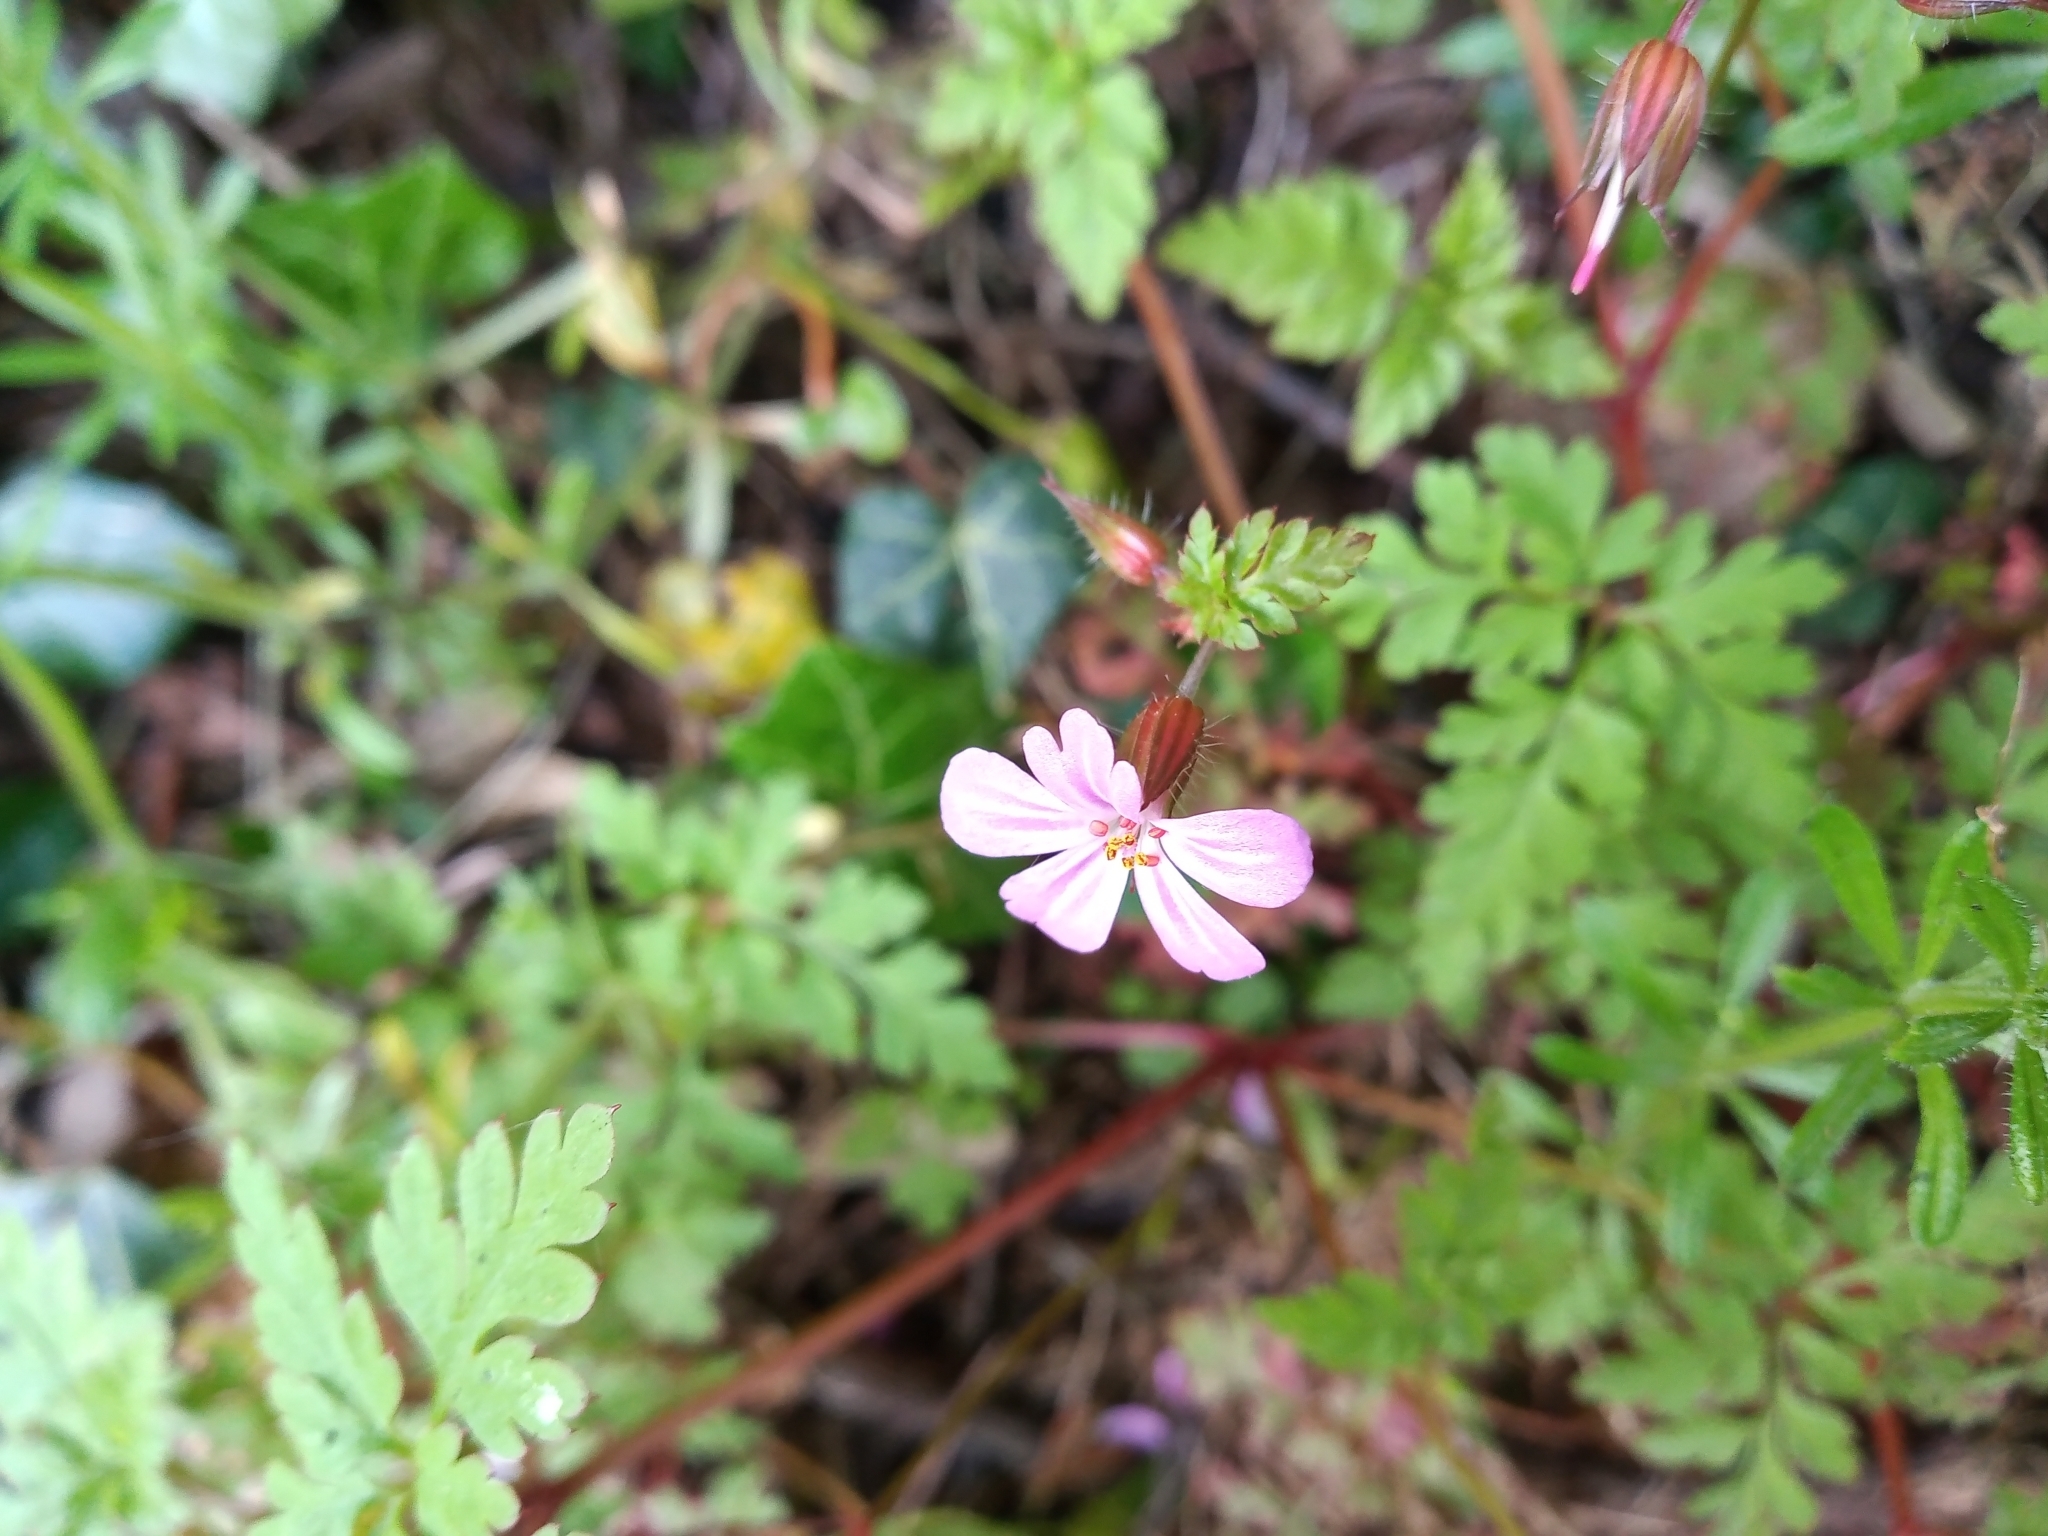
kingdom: Plantae
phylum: Tracheophyta
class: Magnoliopsida
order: Geraniales
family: Geraniaceae
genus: Geranium
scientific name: Geranium robertianum
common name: Herb-robert
